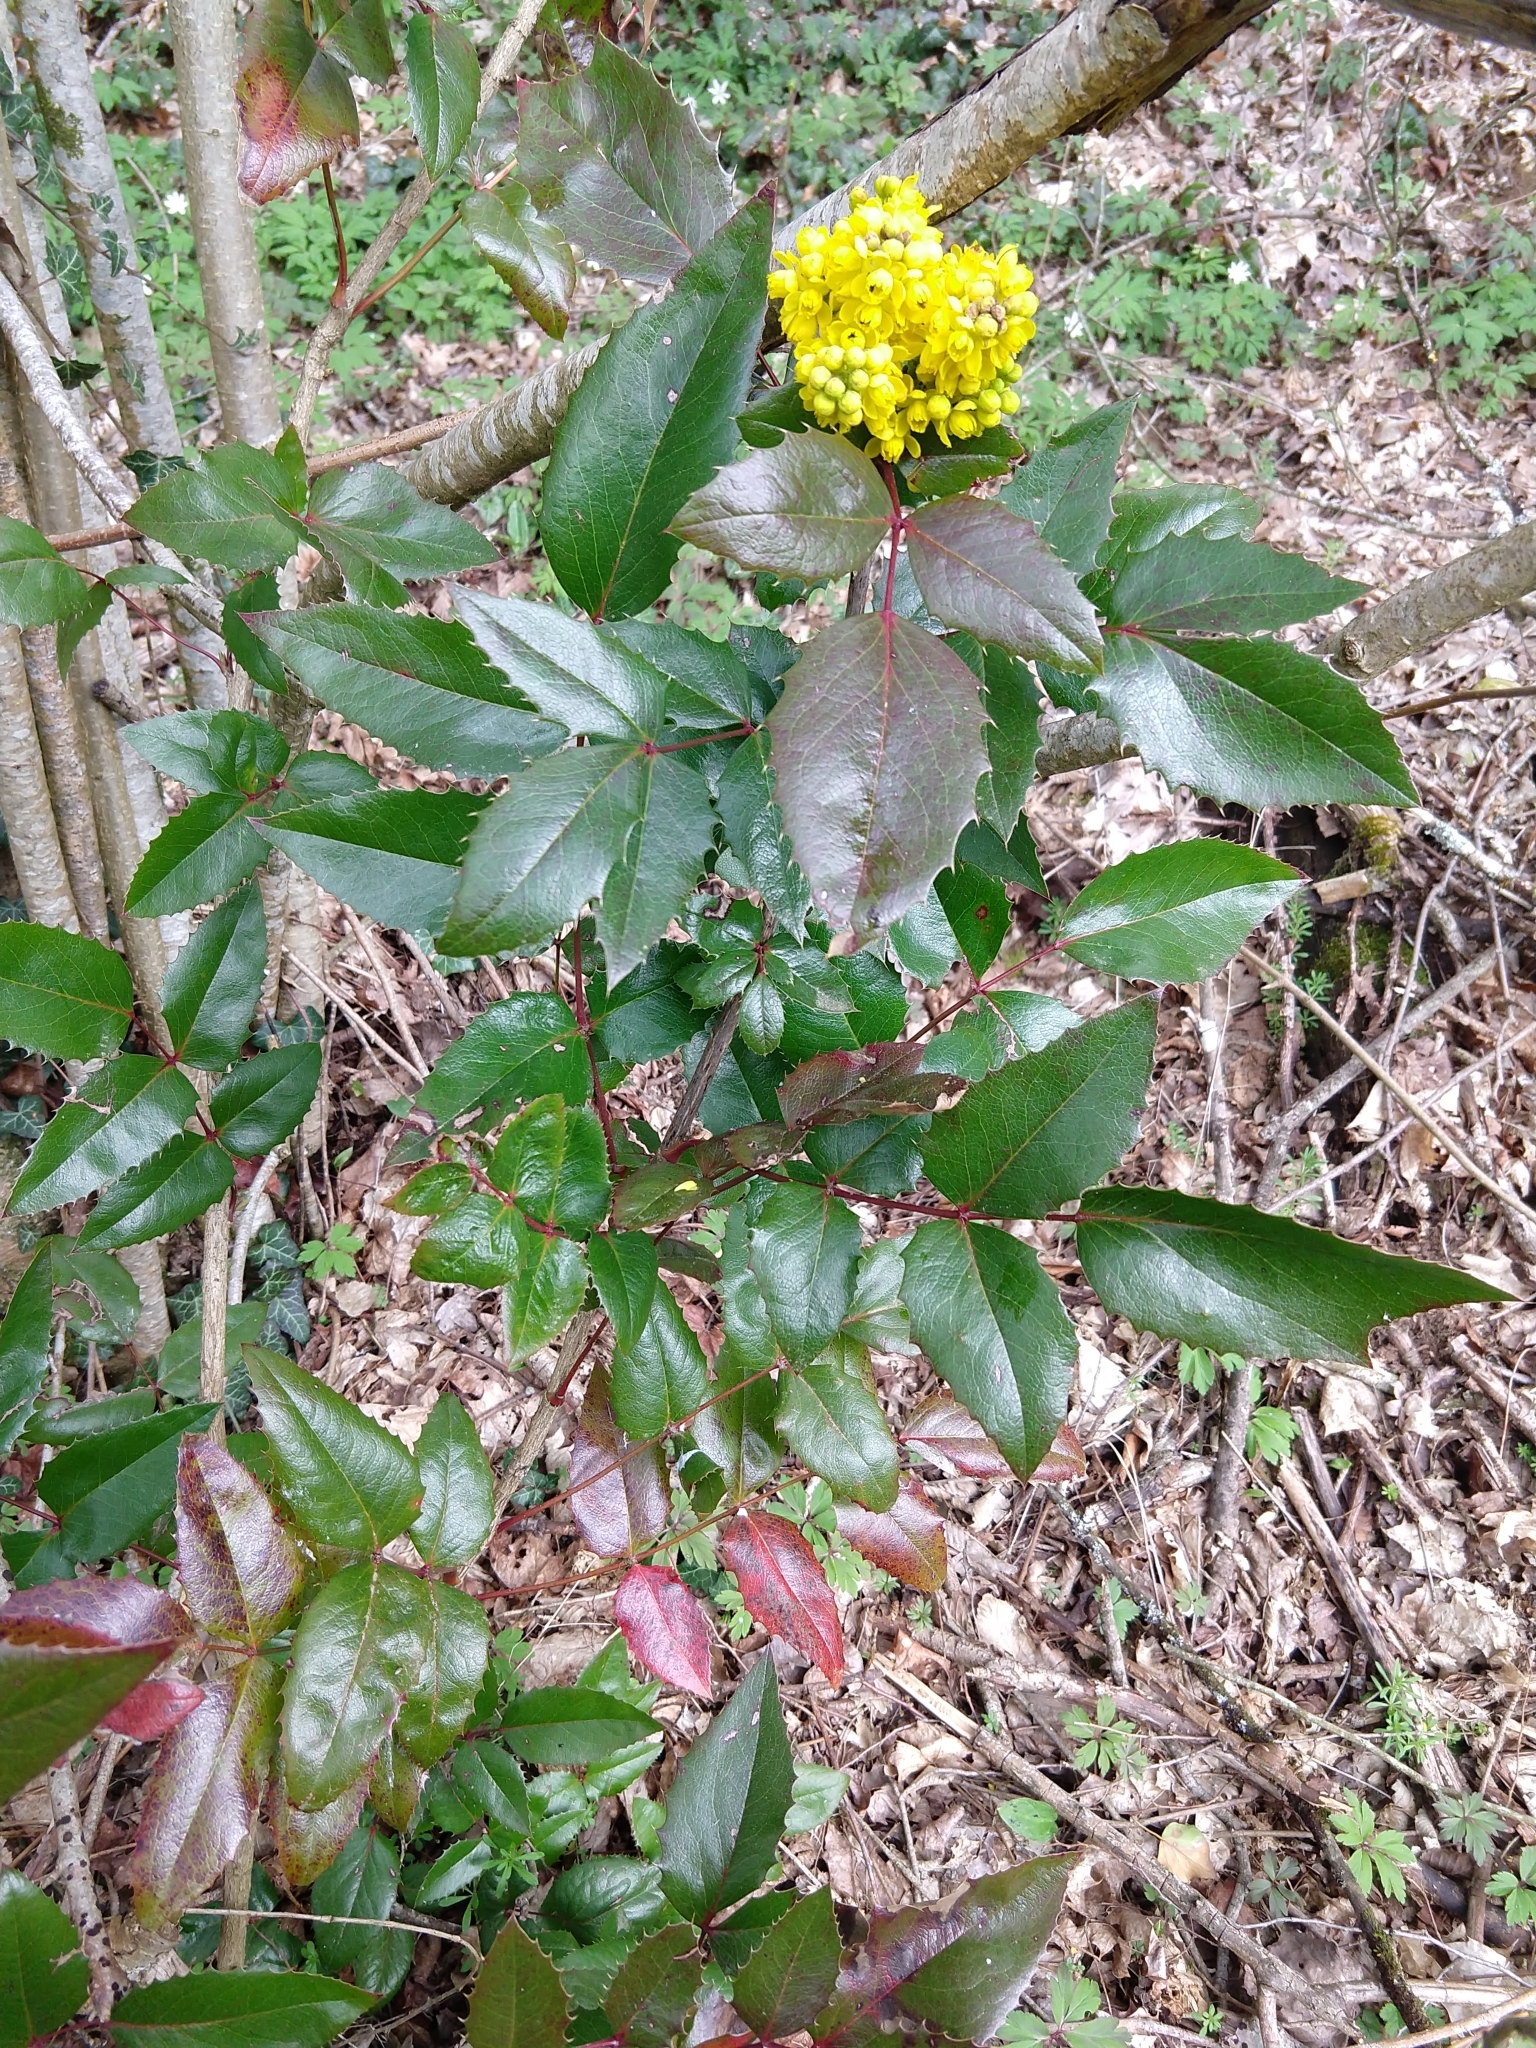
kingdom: Plantae
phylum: Tracheophyta
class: Magnoliopsida
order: Ranunculales
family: Berberidaceae
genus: Mahonia
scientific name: Mahonia aquifolium
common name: Oregon-grape
